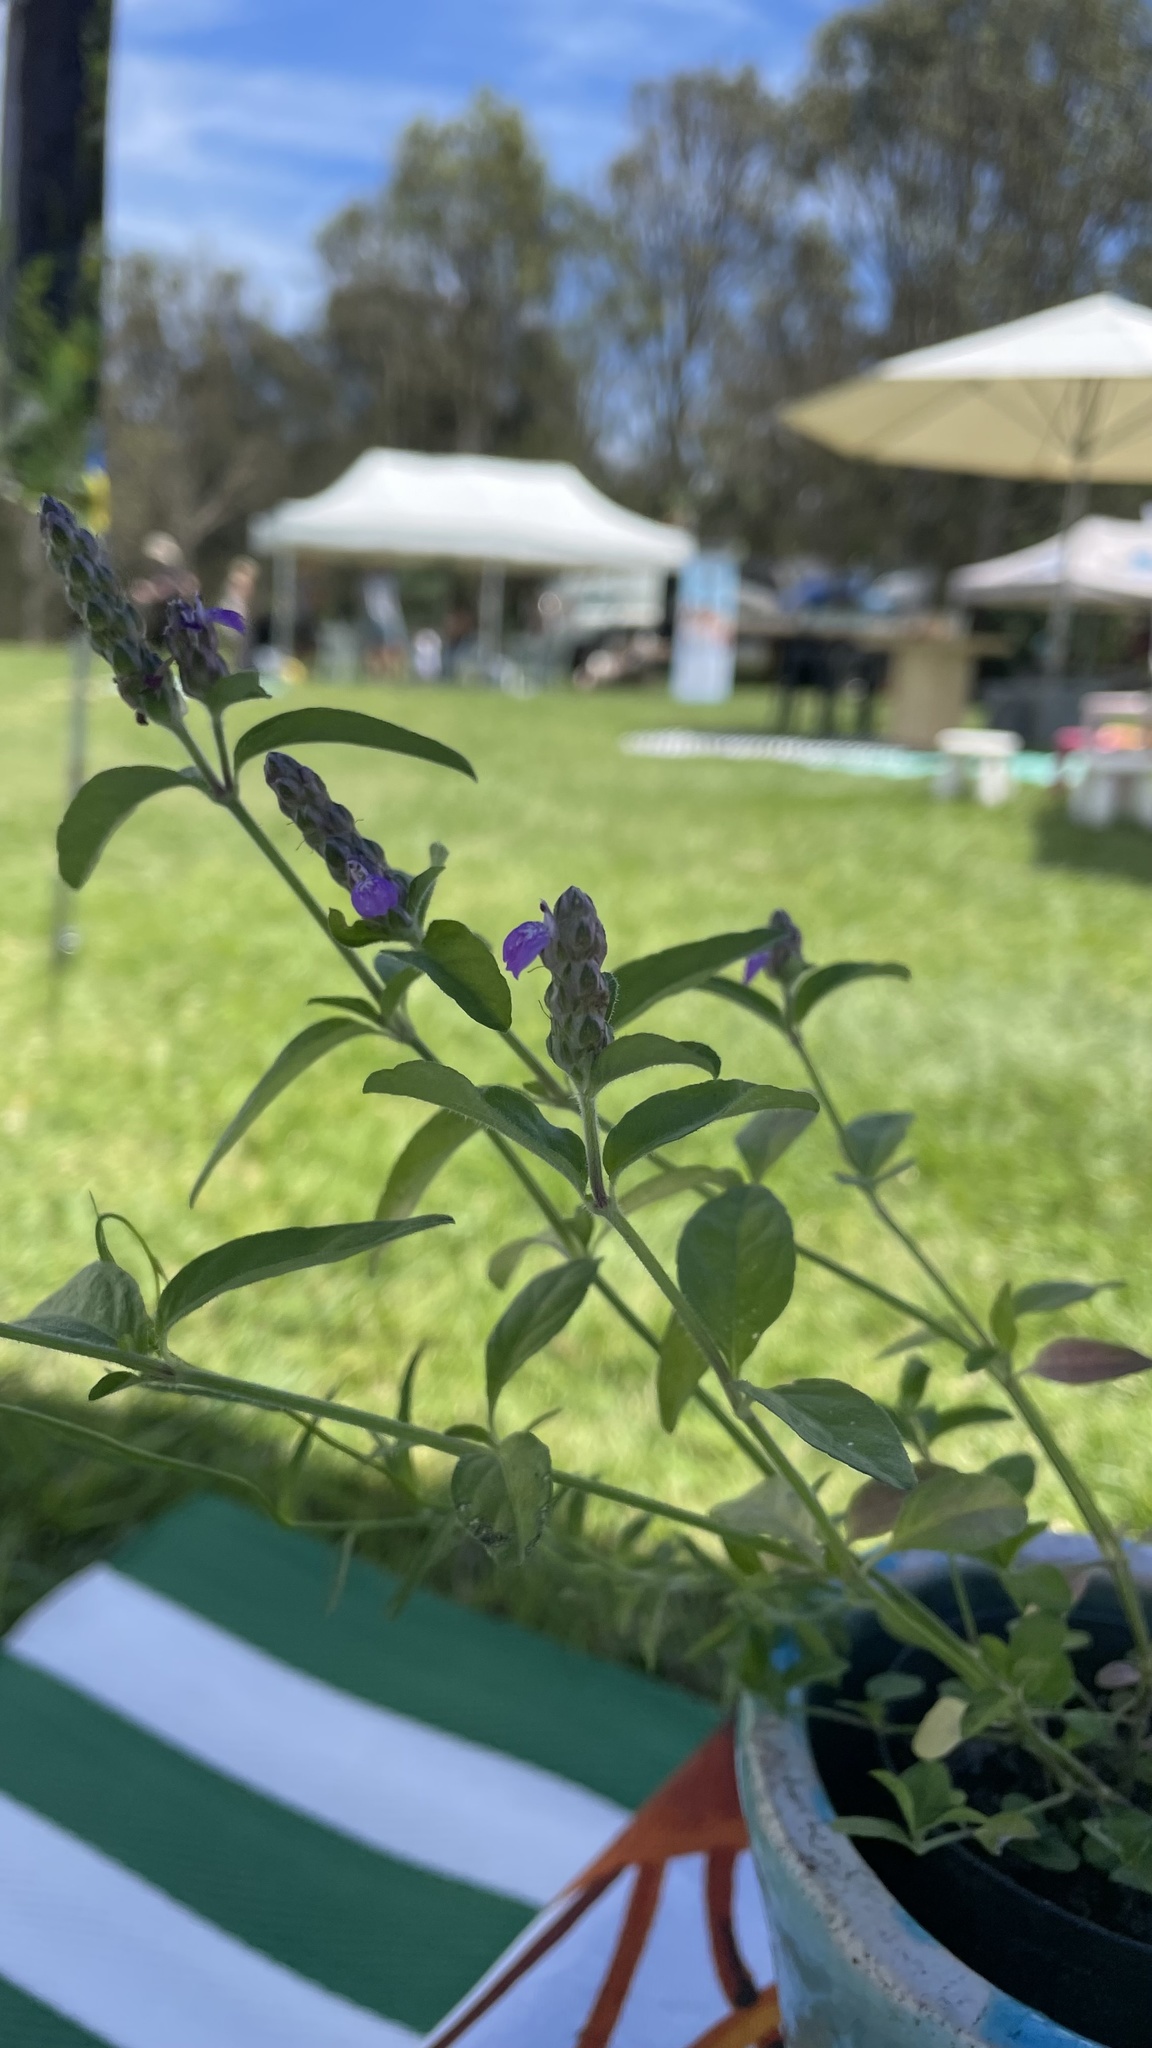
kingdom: Plantae
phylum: Tracheophyta
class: Magnoliopsida
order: Lamiales
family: Acanthaceae
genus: Rostellularia
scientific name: Rostellularia obtusa
